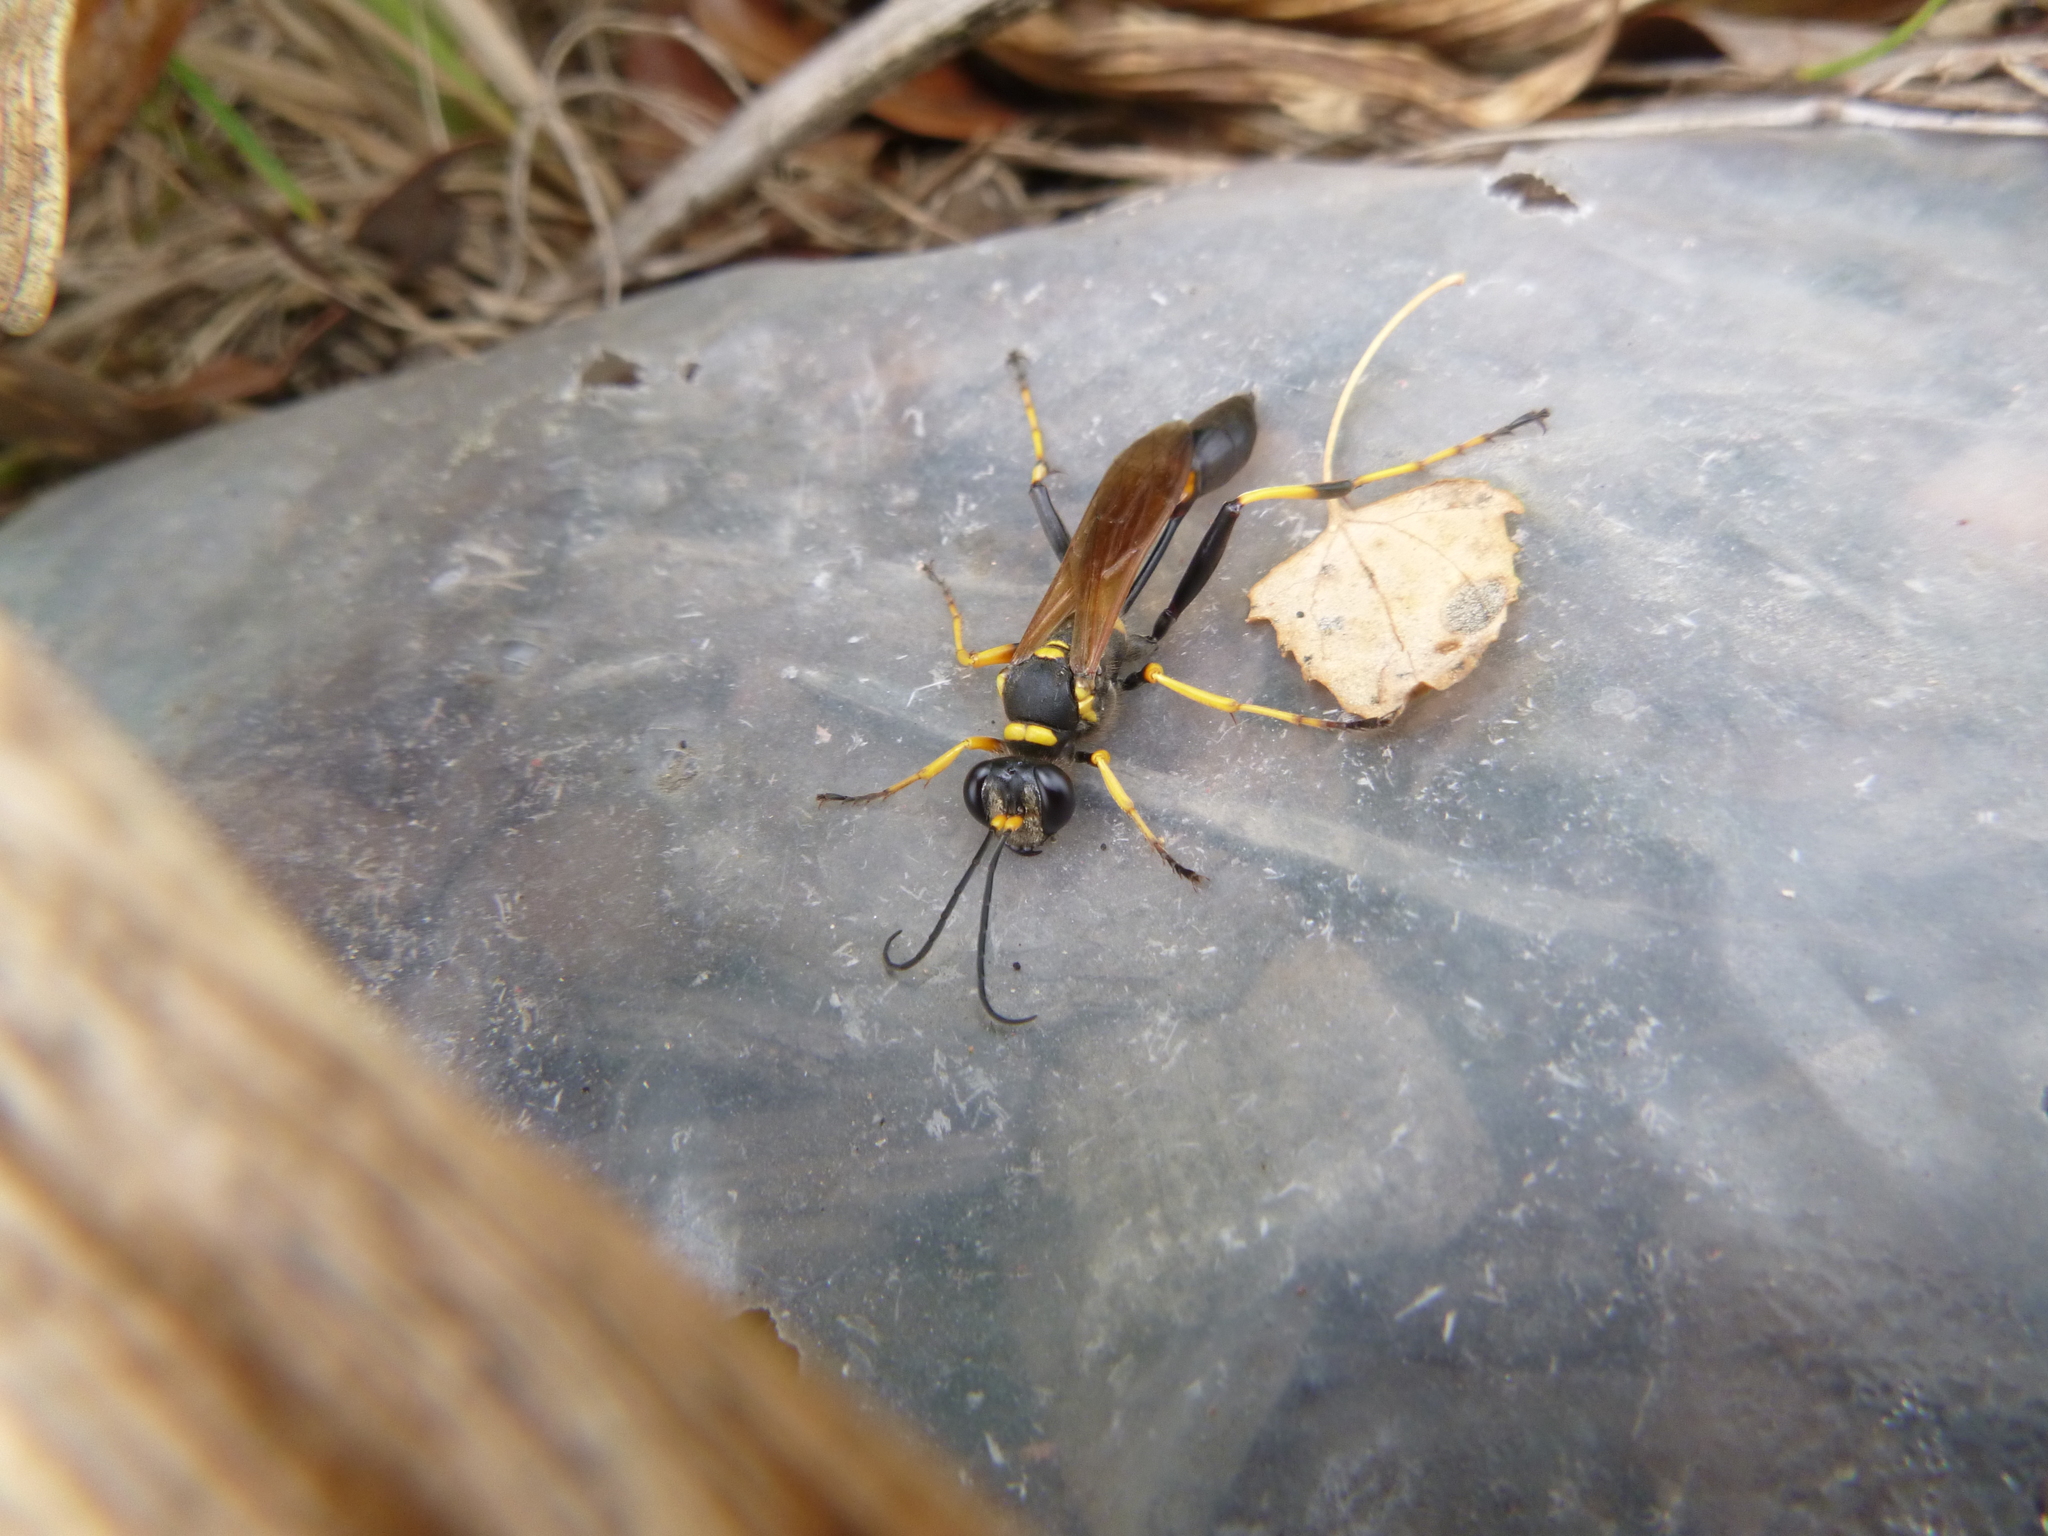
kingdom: Animalia
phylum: Arthropoda
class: Insecta
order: Hymenoptera
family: Sphecidae
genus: Sceliphron
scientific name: Sceliphron caementarium
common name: Mud dauber
